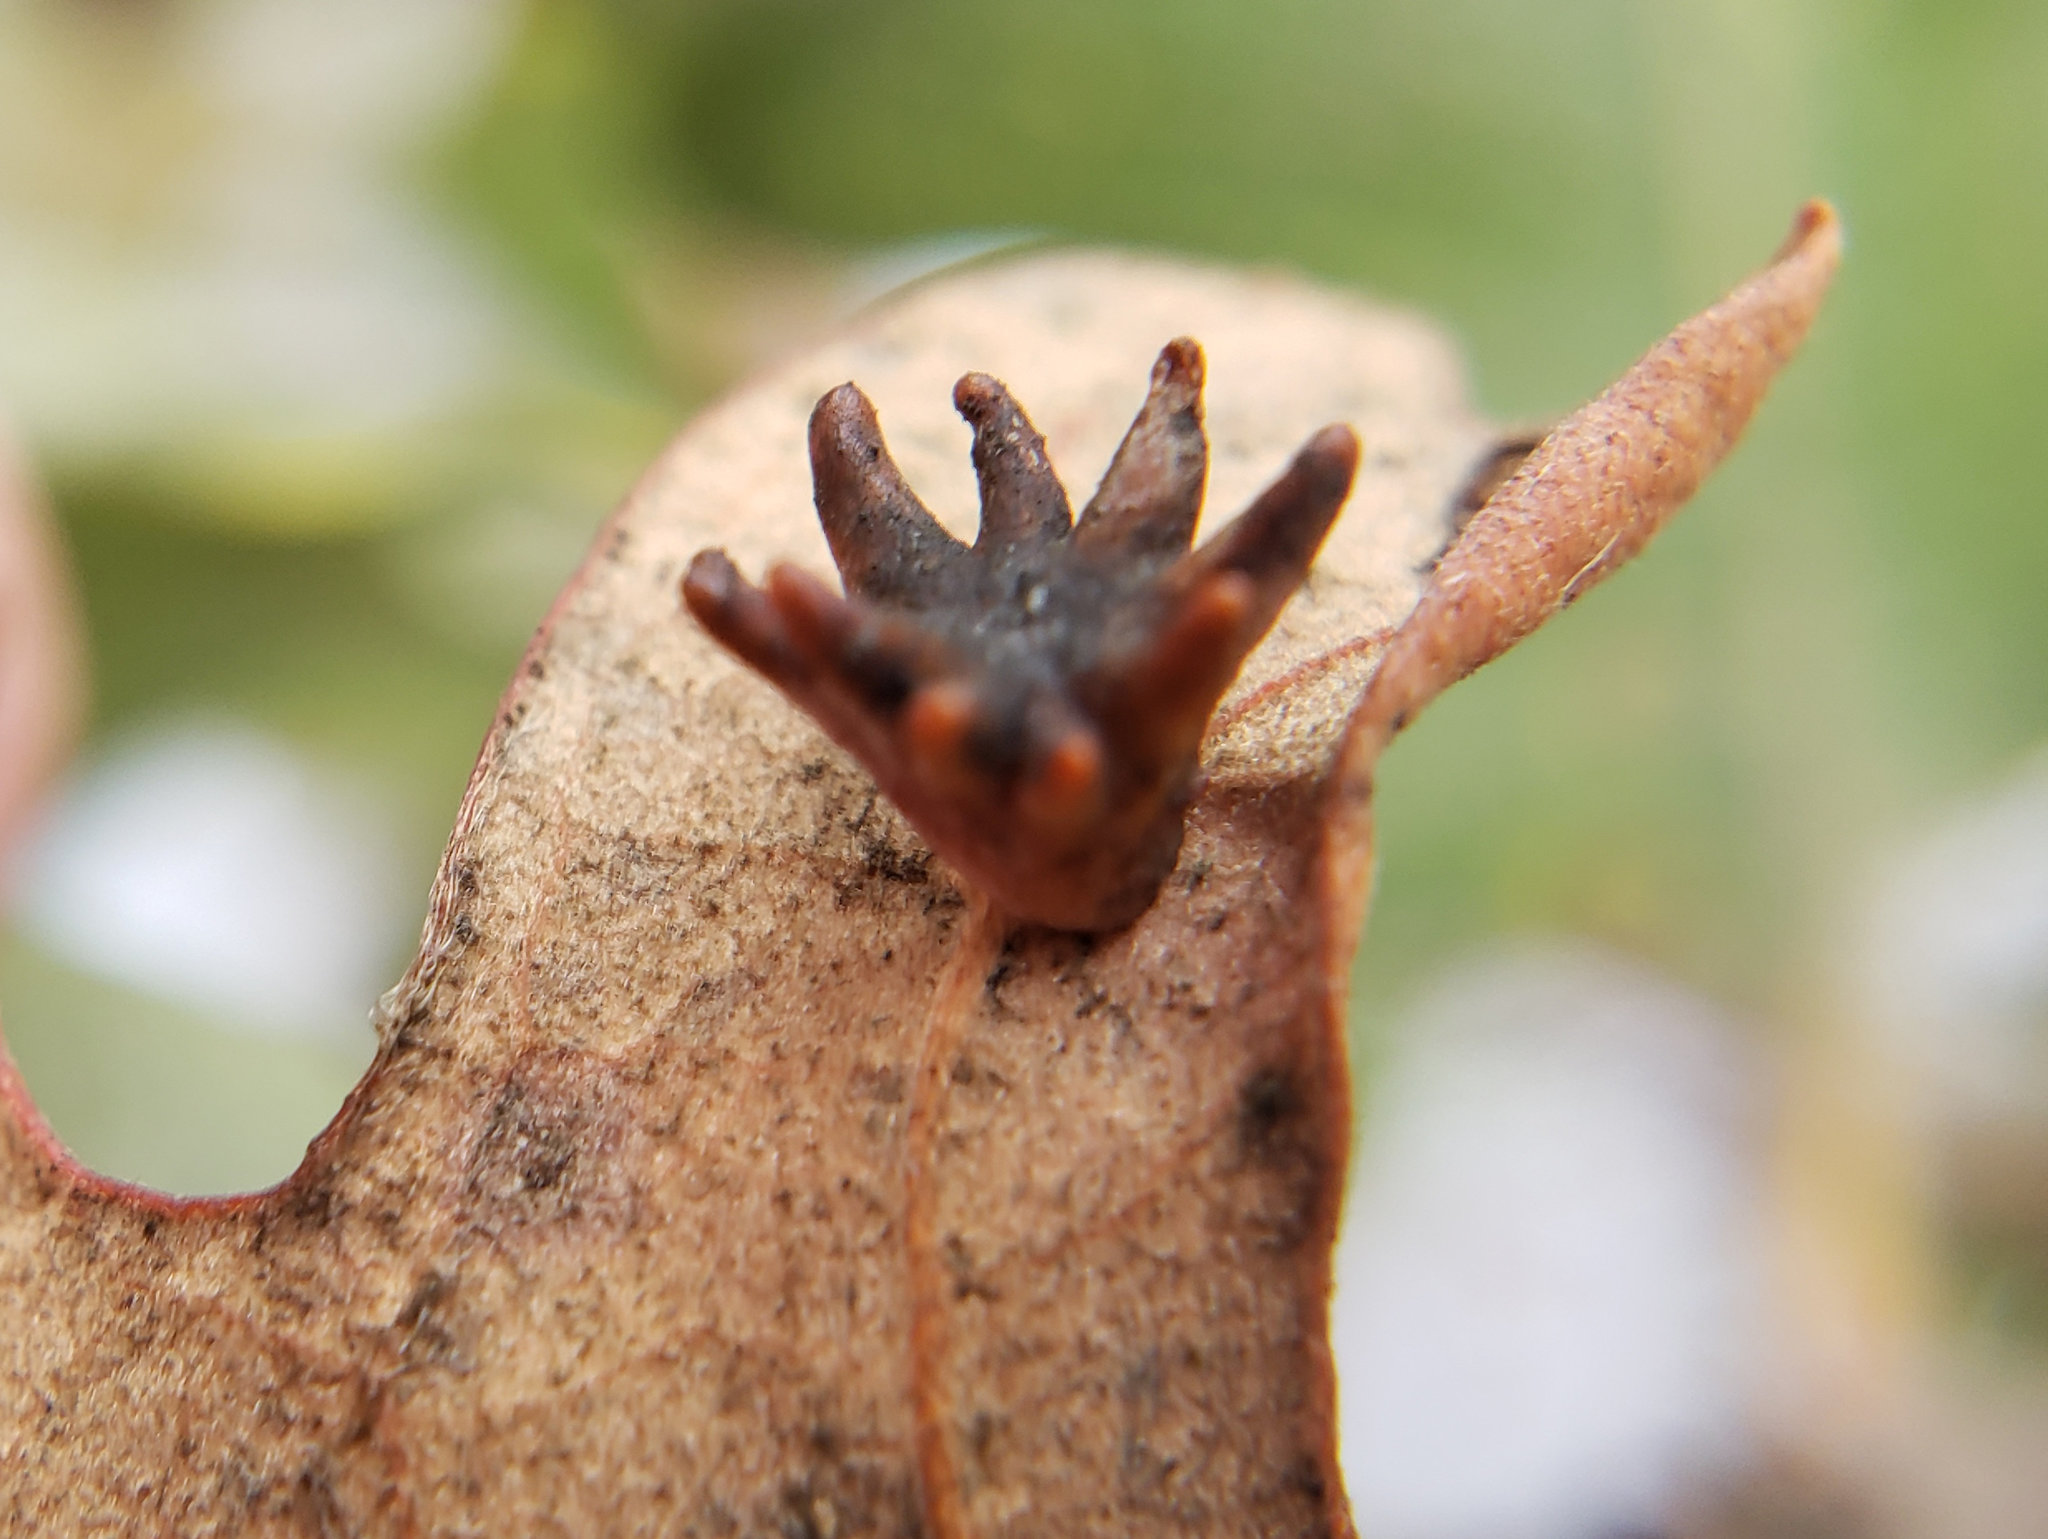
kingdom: Animalia
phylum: Arthropoda
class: Insecta
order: Hymenoptera
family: Cynipidae
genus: Cynips
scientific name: Cynips douglasi
